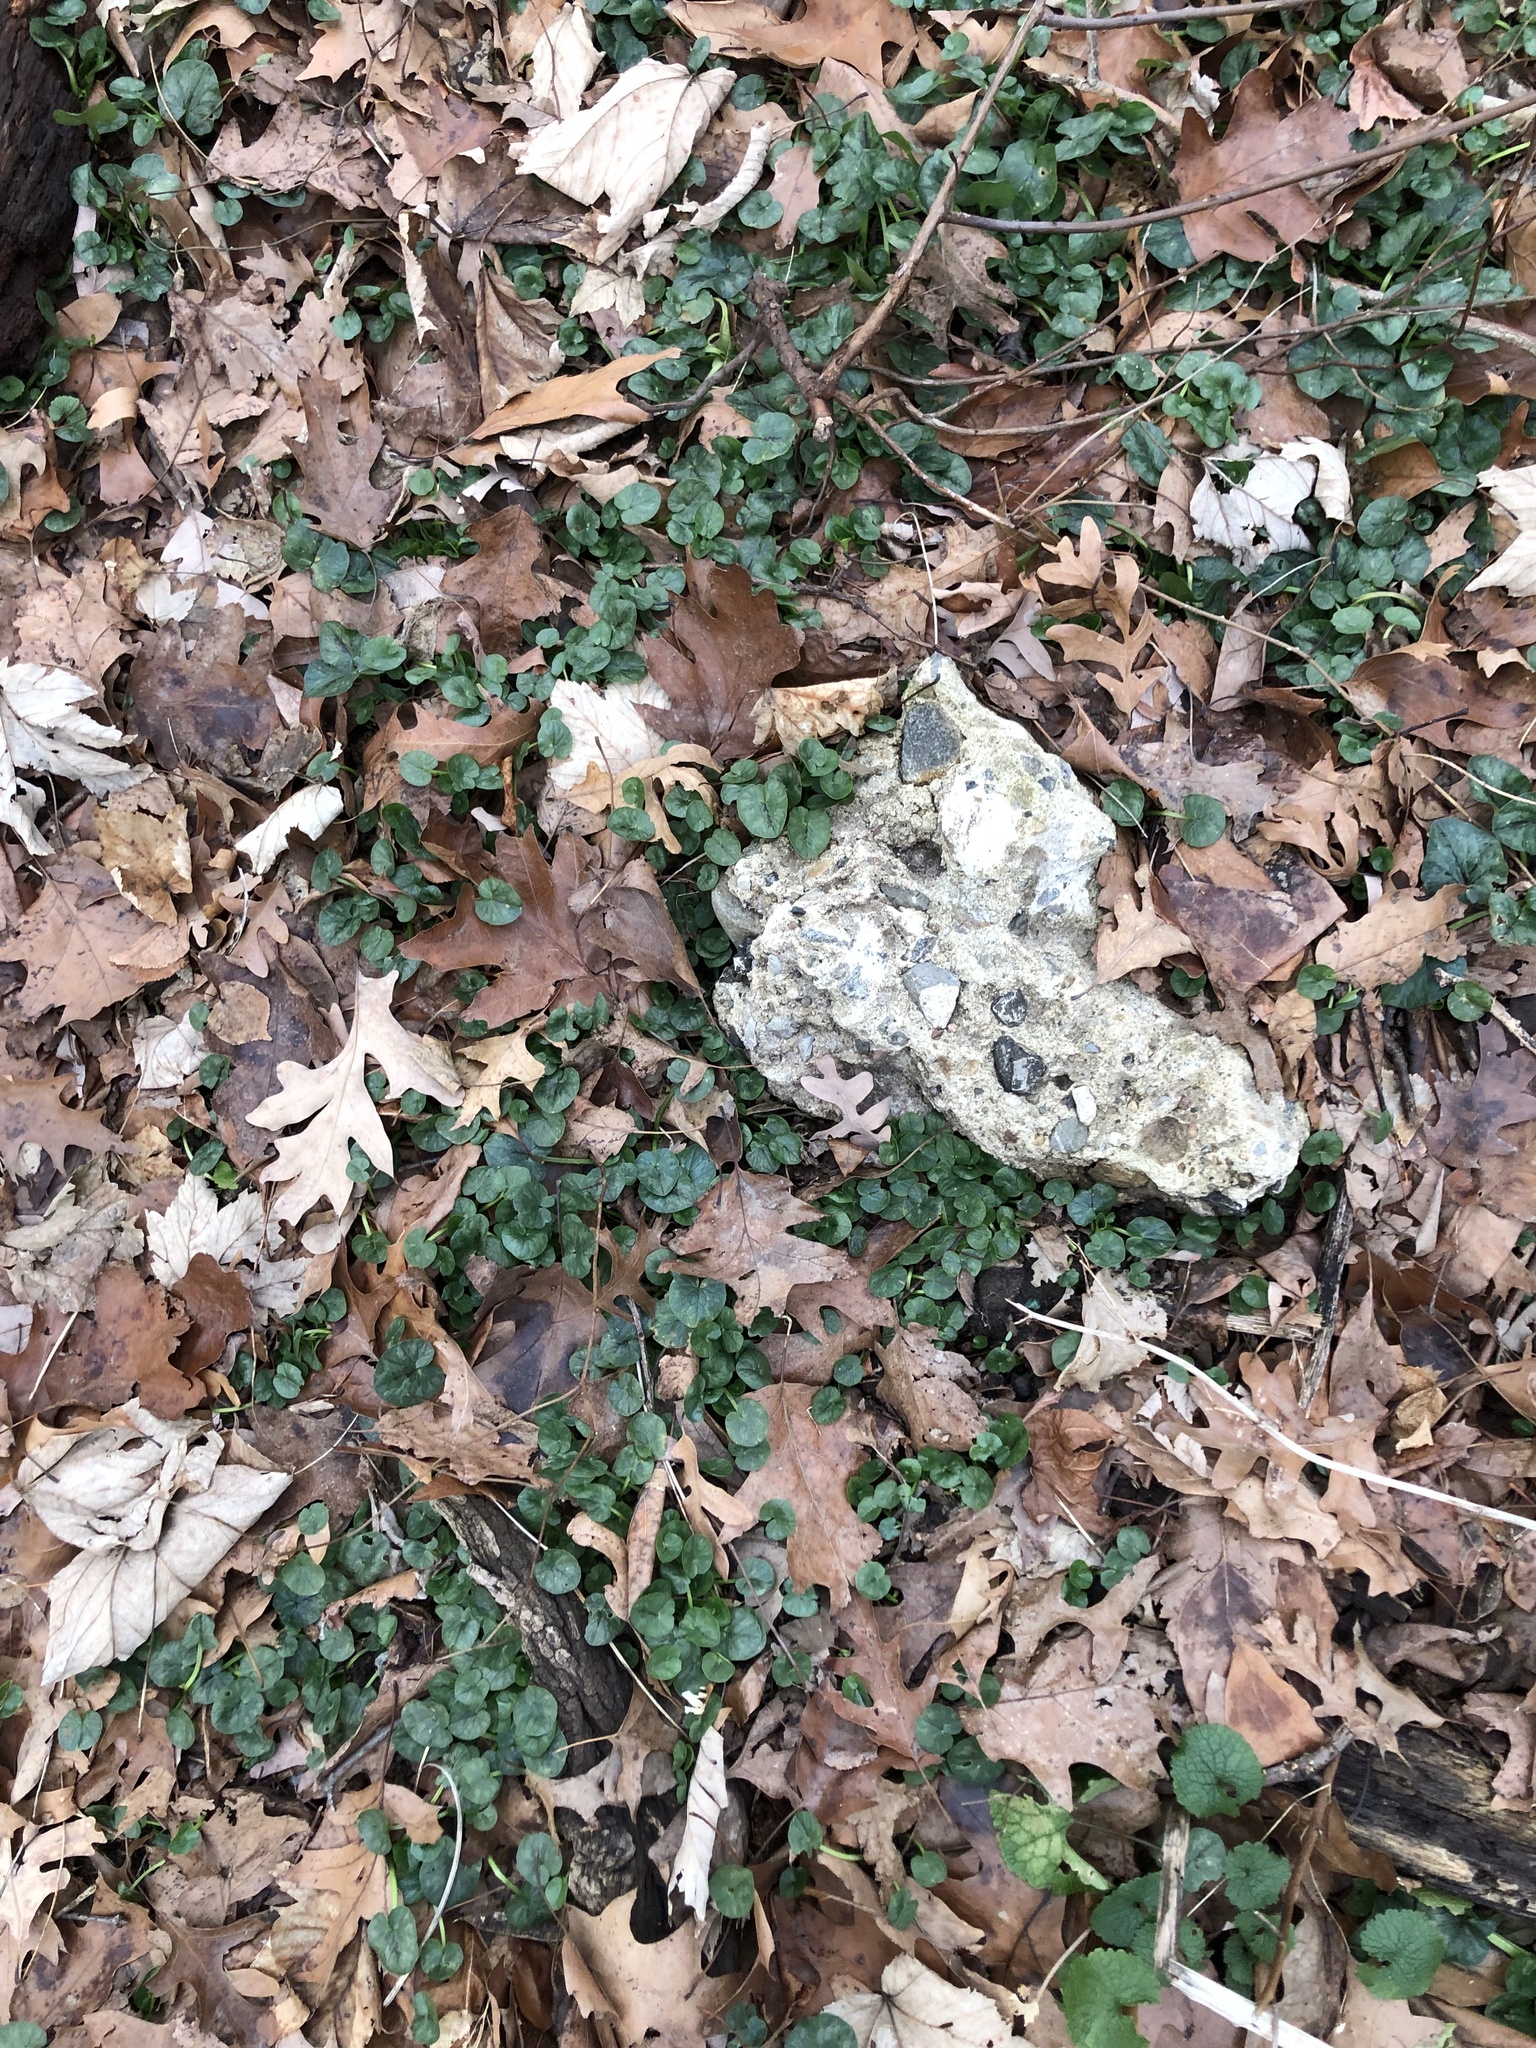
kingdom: Plantae
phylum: Tracheophyta
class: Magnoliopsida
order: Ranunculales
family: Ranunculaceae
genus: Ficaria
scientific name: Ficaria verna
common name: Lesser celandine
